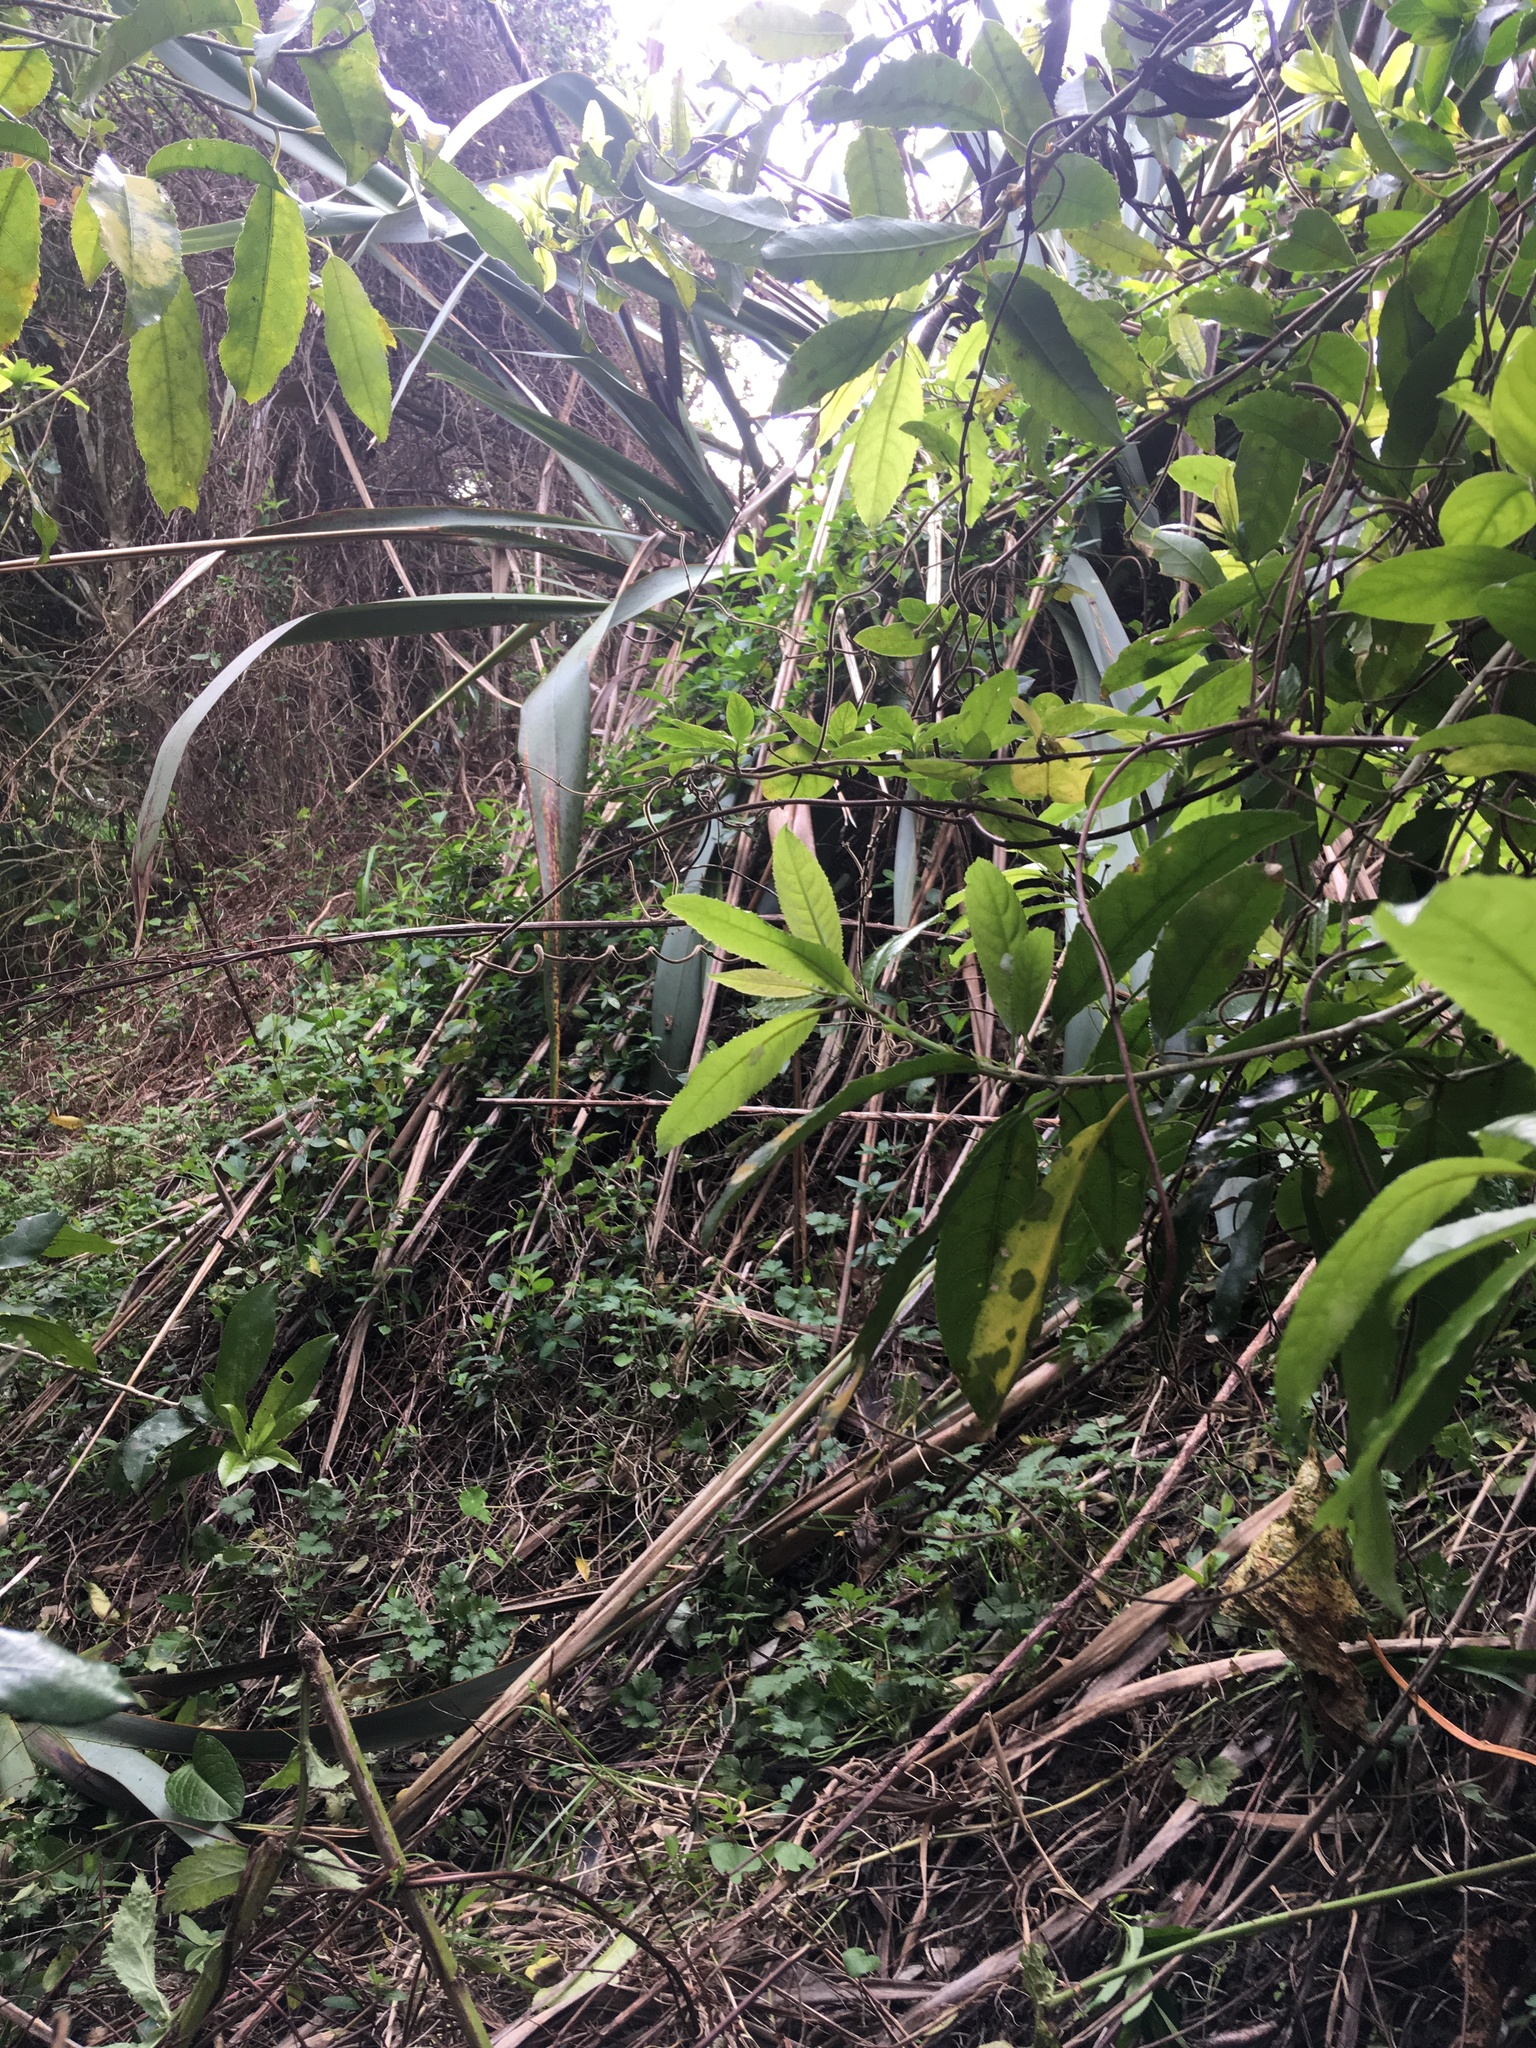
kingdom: Plantae
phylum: Tracheophyta
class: Magnoliopsida
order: Malpighiales
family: Violaceae
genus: Melicytus
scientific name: Melicytus ramiflorus
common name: Mahoe
